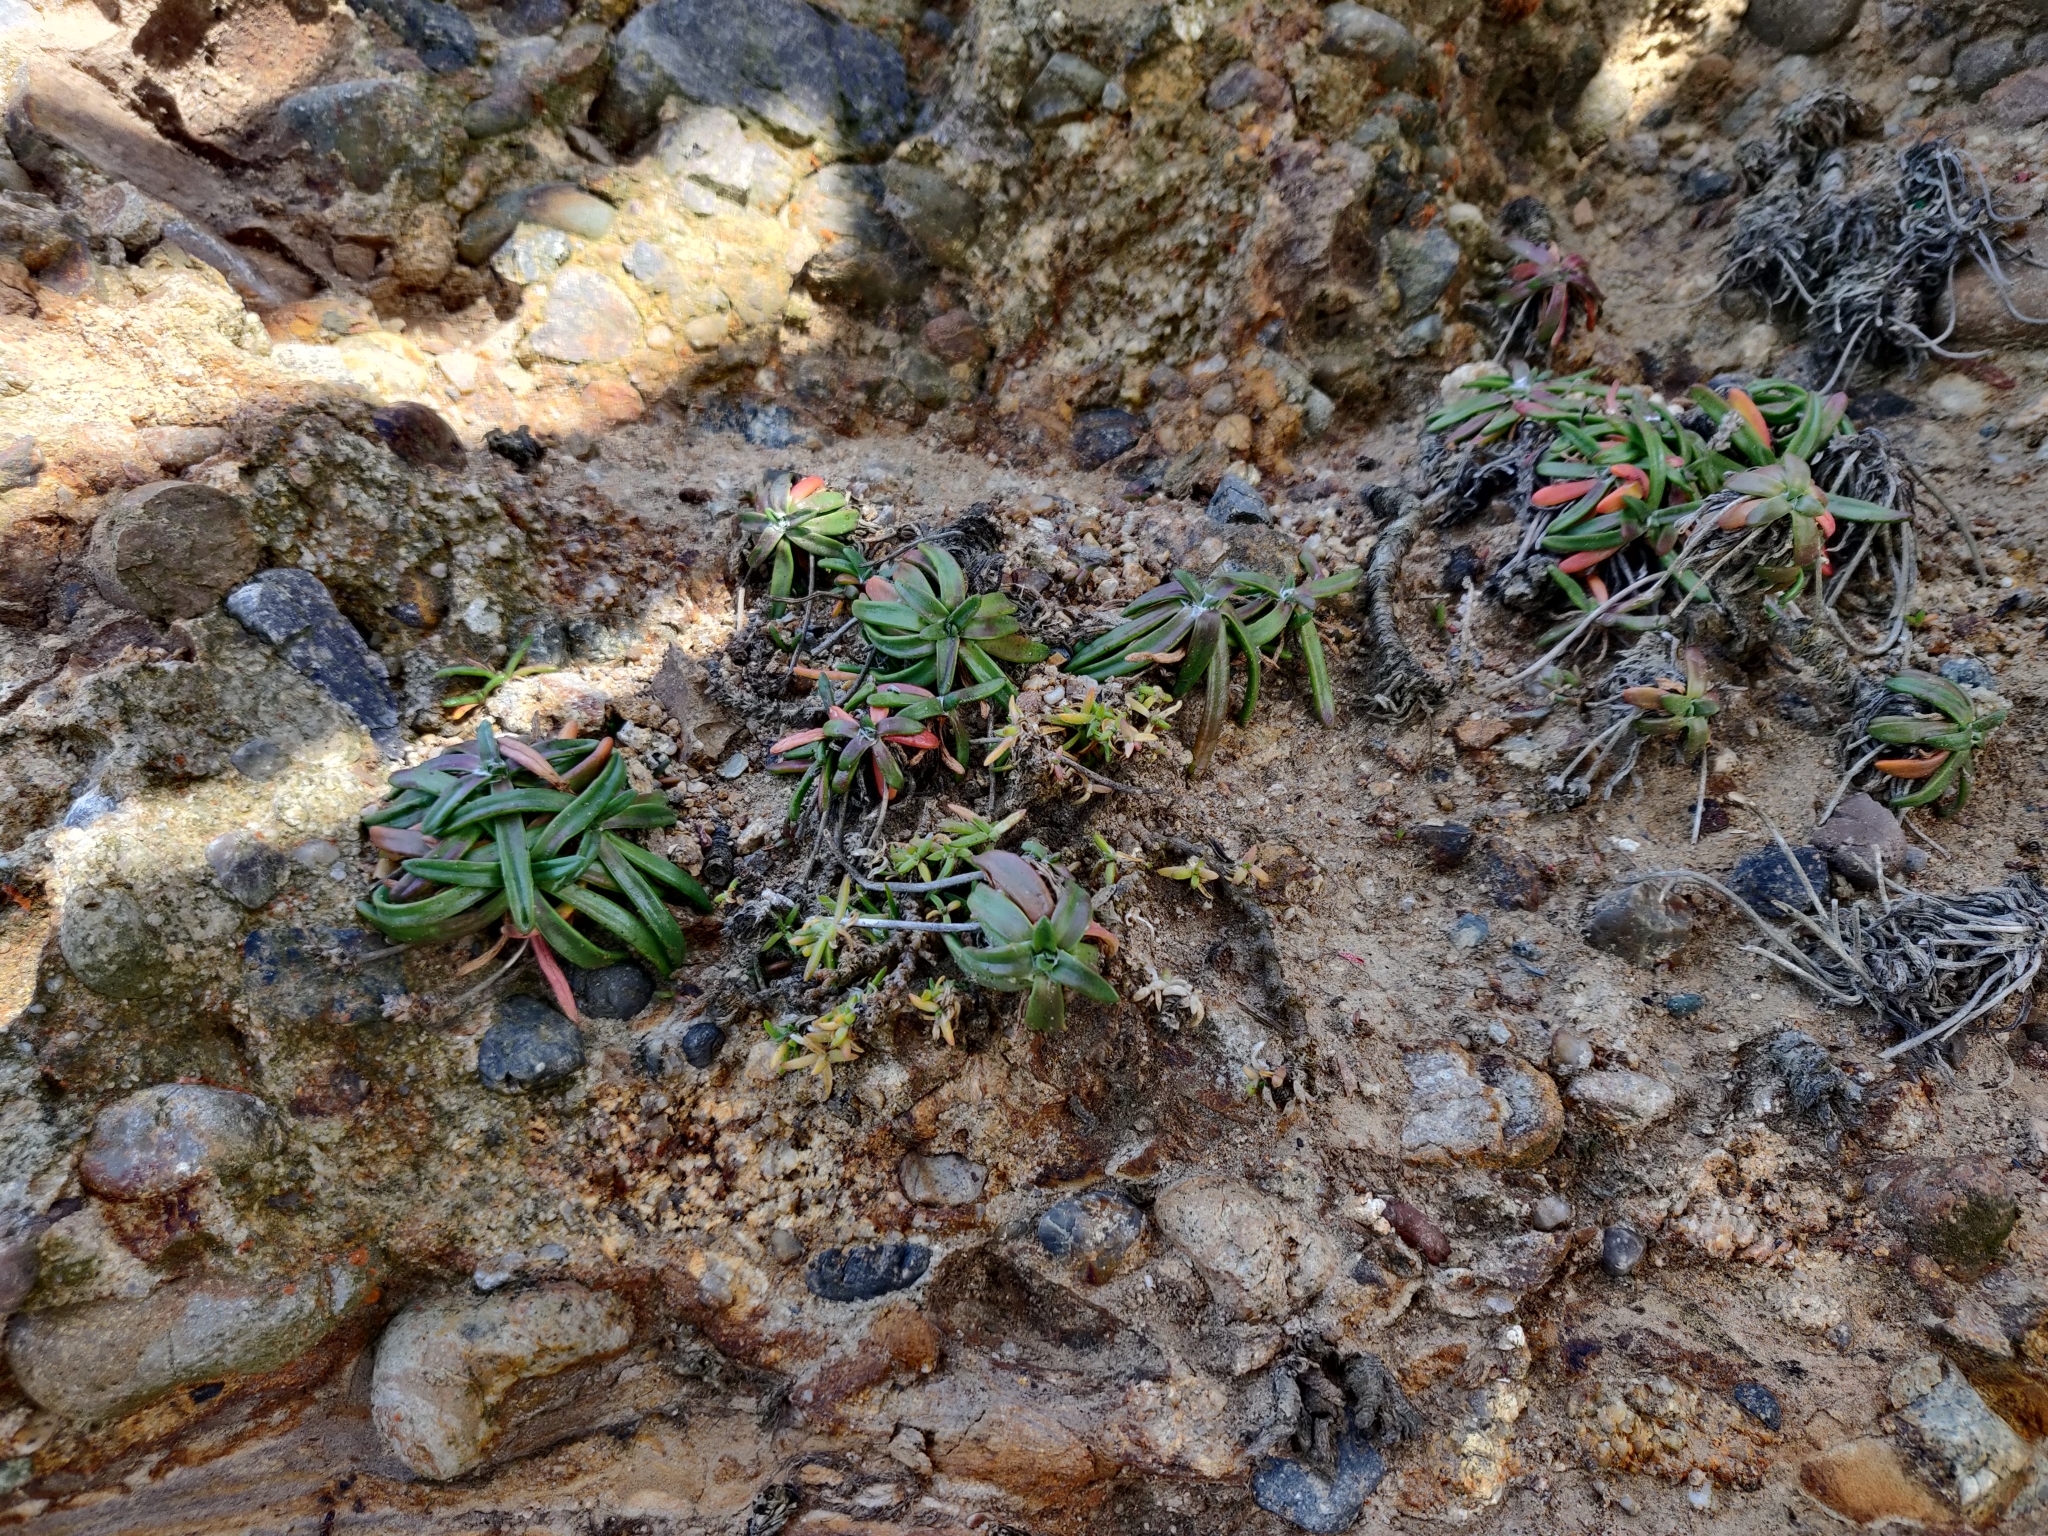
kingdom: Plantae
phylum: Tracheophyta
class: Magnoliopsida
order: Lamiales
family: Plantaginaceae
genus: Plantago
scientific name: Plantago maritima
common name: Sea plantain
